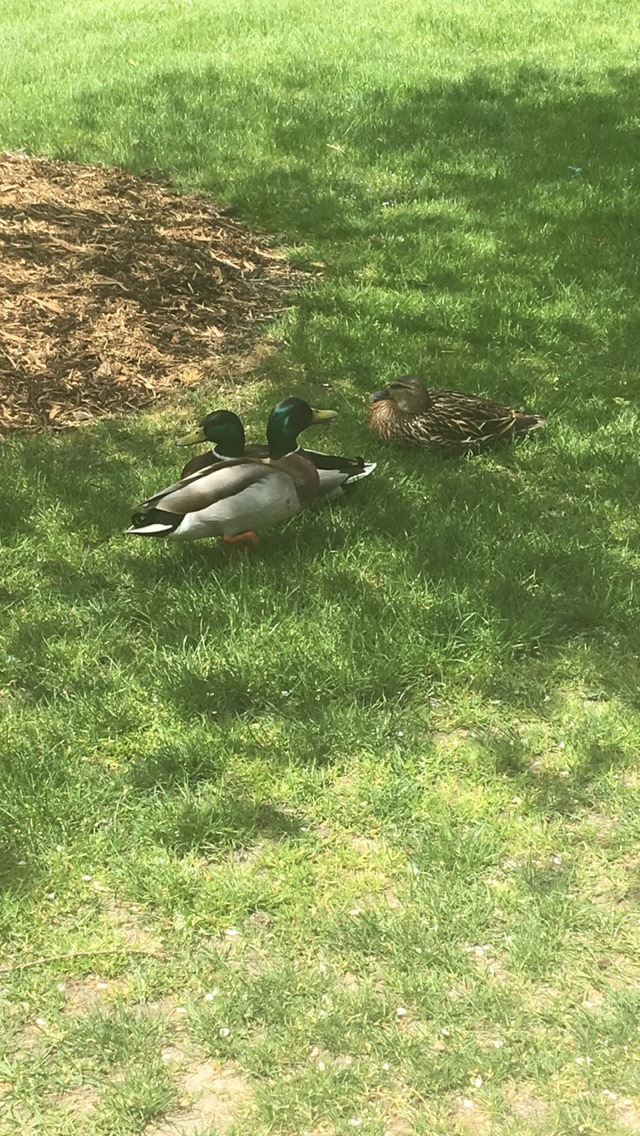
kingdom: Animalia
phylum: Chordata
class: Aves
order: Anseriformes
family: Anatidae
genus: Anas
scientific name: Anas platyrhynchos
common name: Mallard
